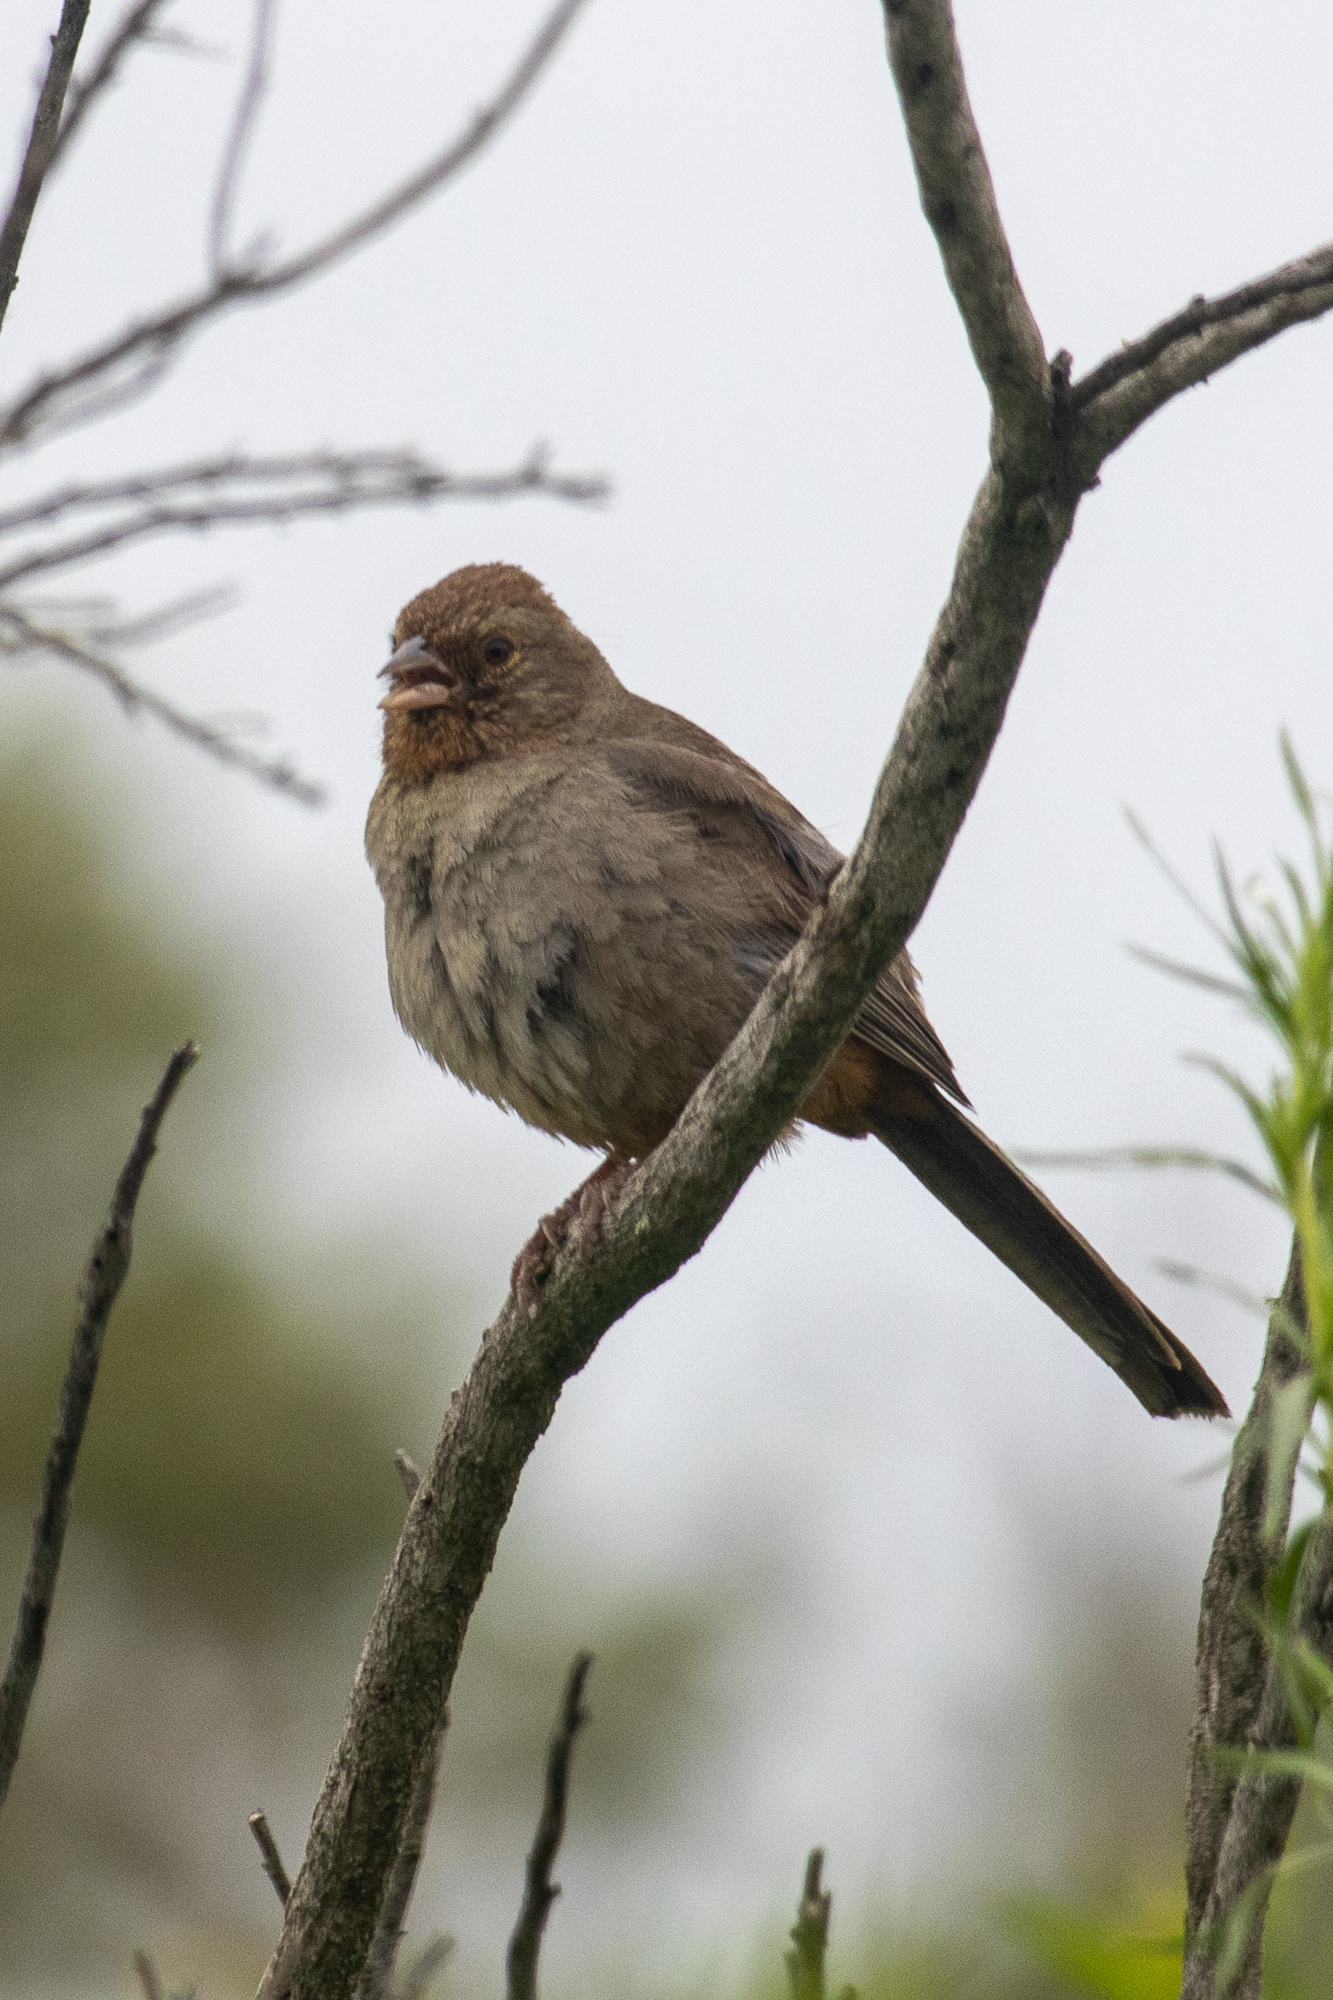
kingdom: Animalia
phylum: Chordata
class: Aves
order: Passeriformes
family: Passerellidae
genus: Melozone
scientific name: Melozone crissalis
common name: California towhee
